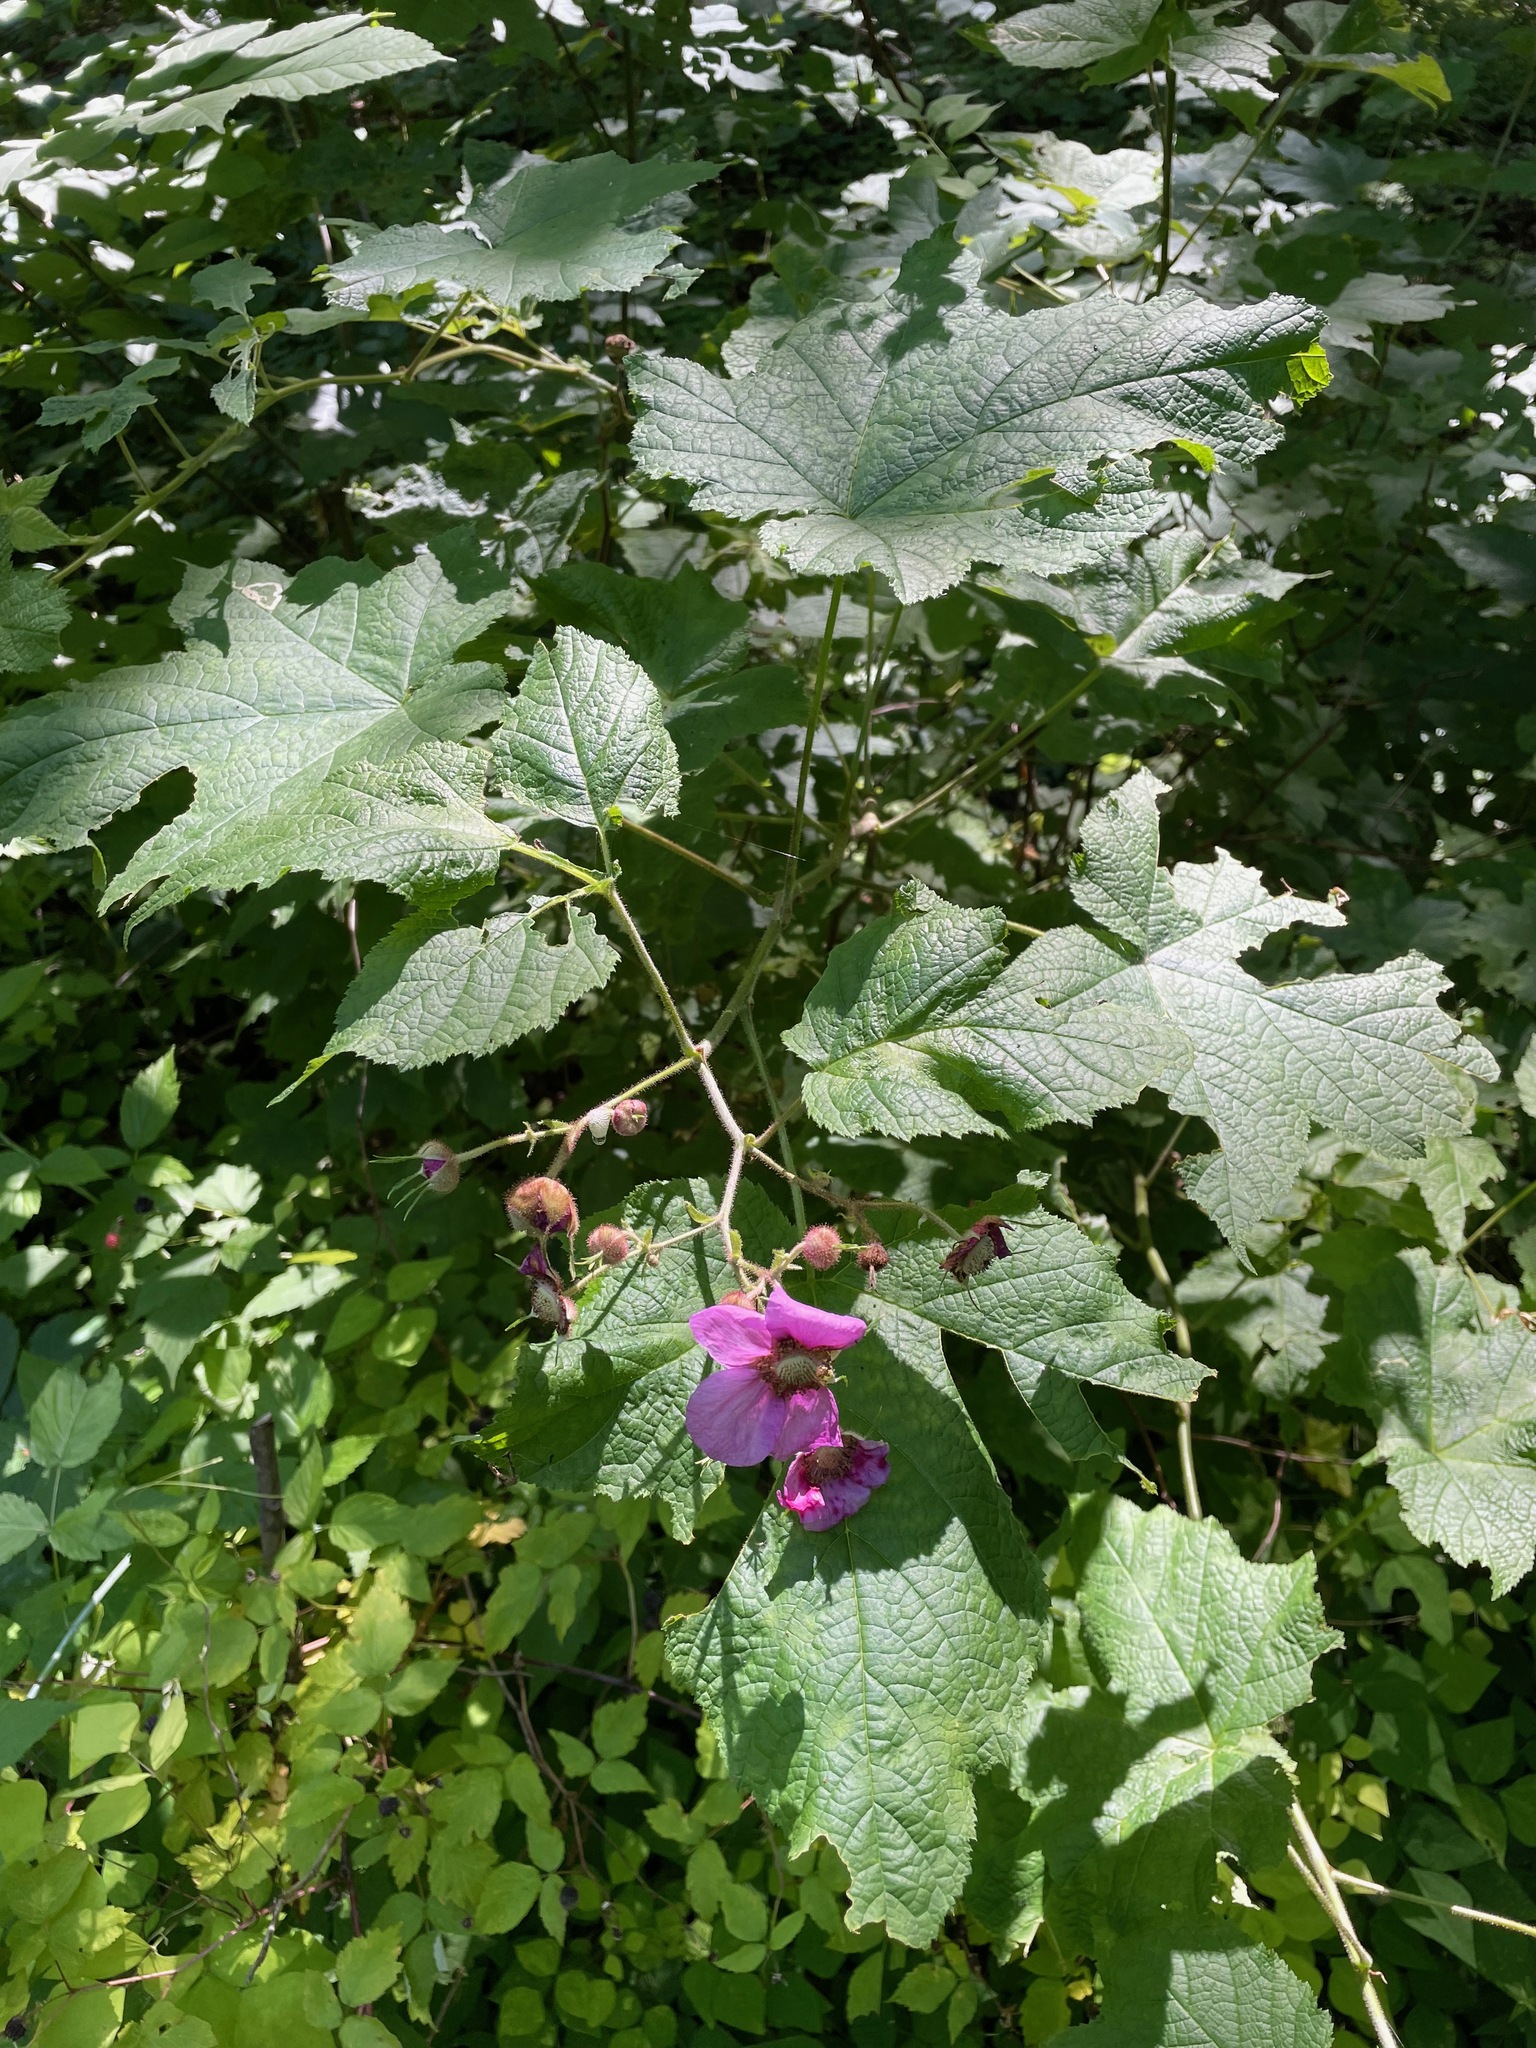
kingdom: Plantae
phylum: Tracheophyta
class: Magnoliopsida
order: Rosales
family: Rosaceae
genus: Rubus
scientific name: Rubus odoratus
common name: Purple-flowered raspberry
